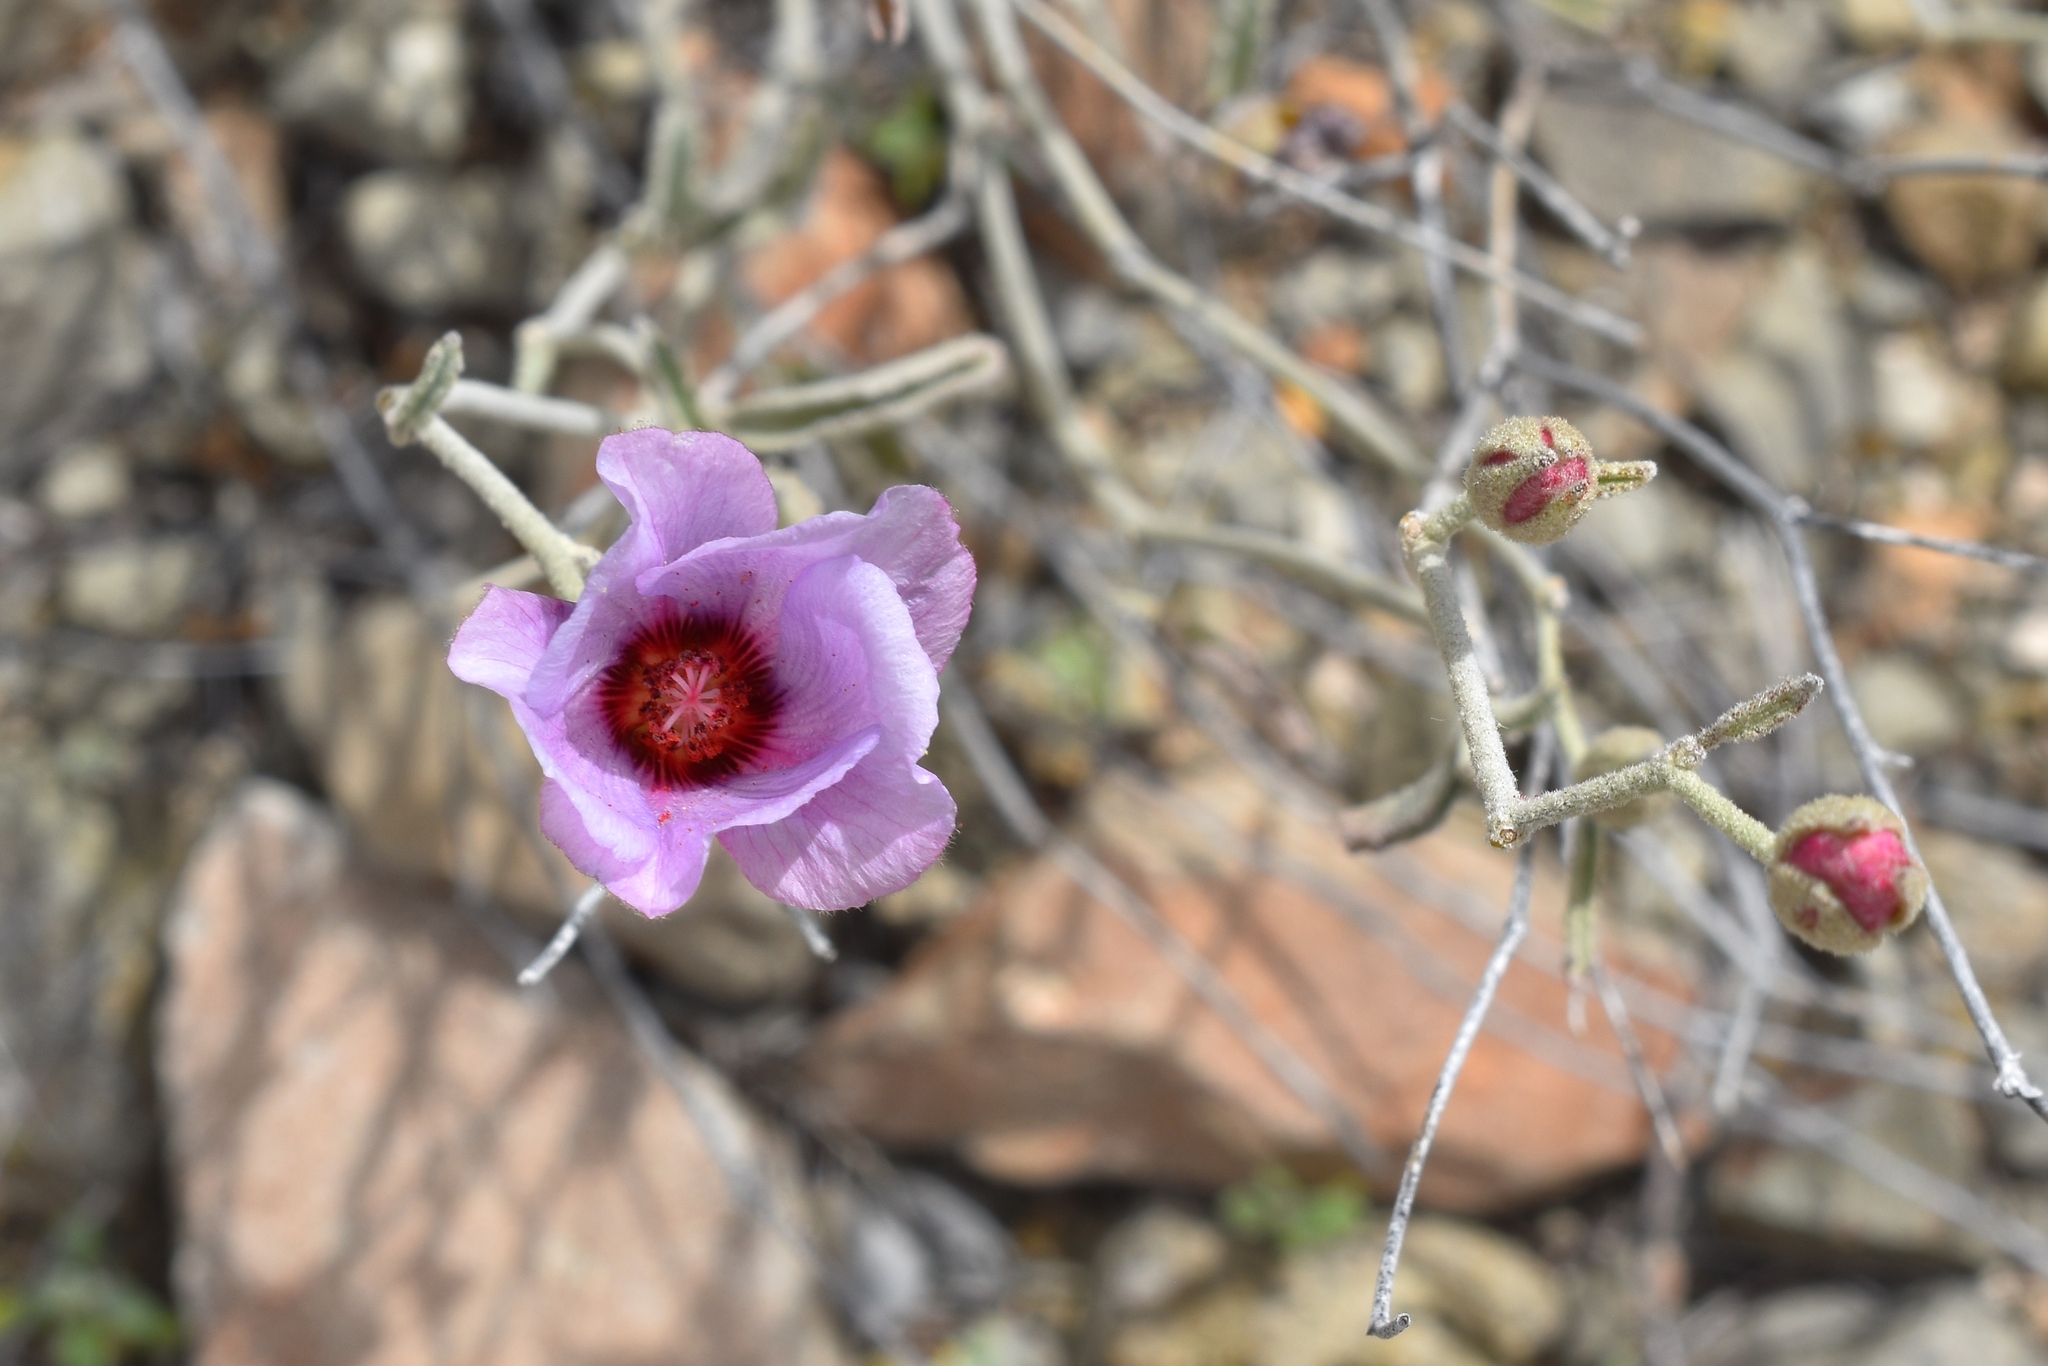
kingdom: Plantae
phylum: Tracheophyta
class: Magnoliopsida
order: Malvales
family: Malvaceae
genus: Hibiscus
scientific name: Hibiscus denudatus
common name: Paleface
